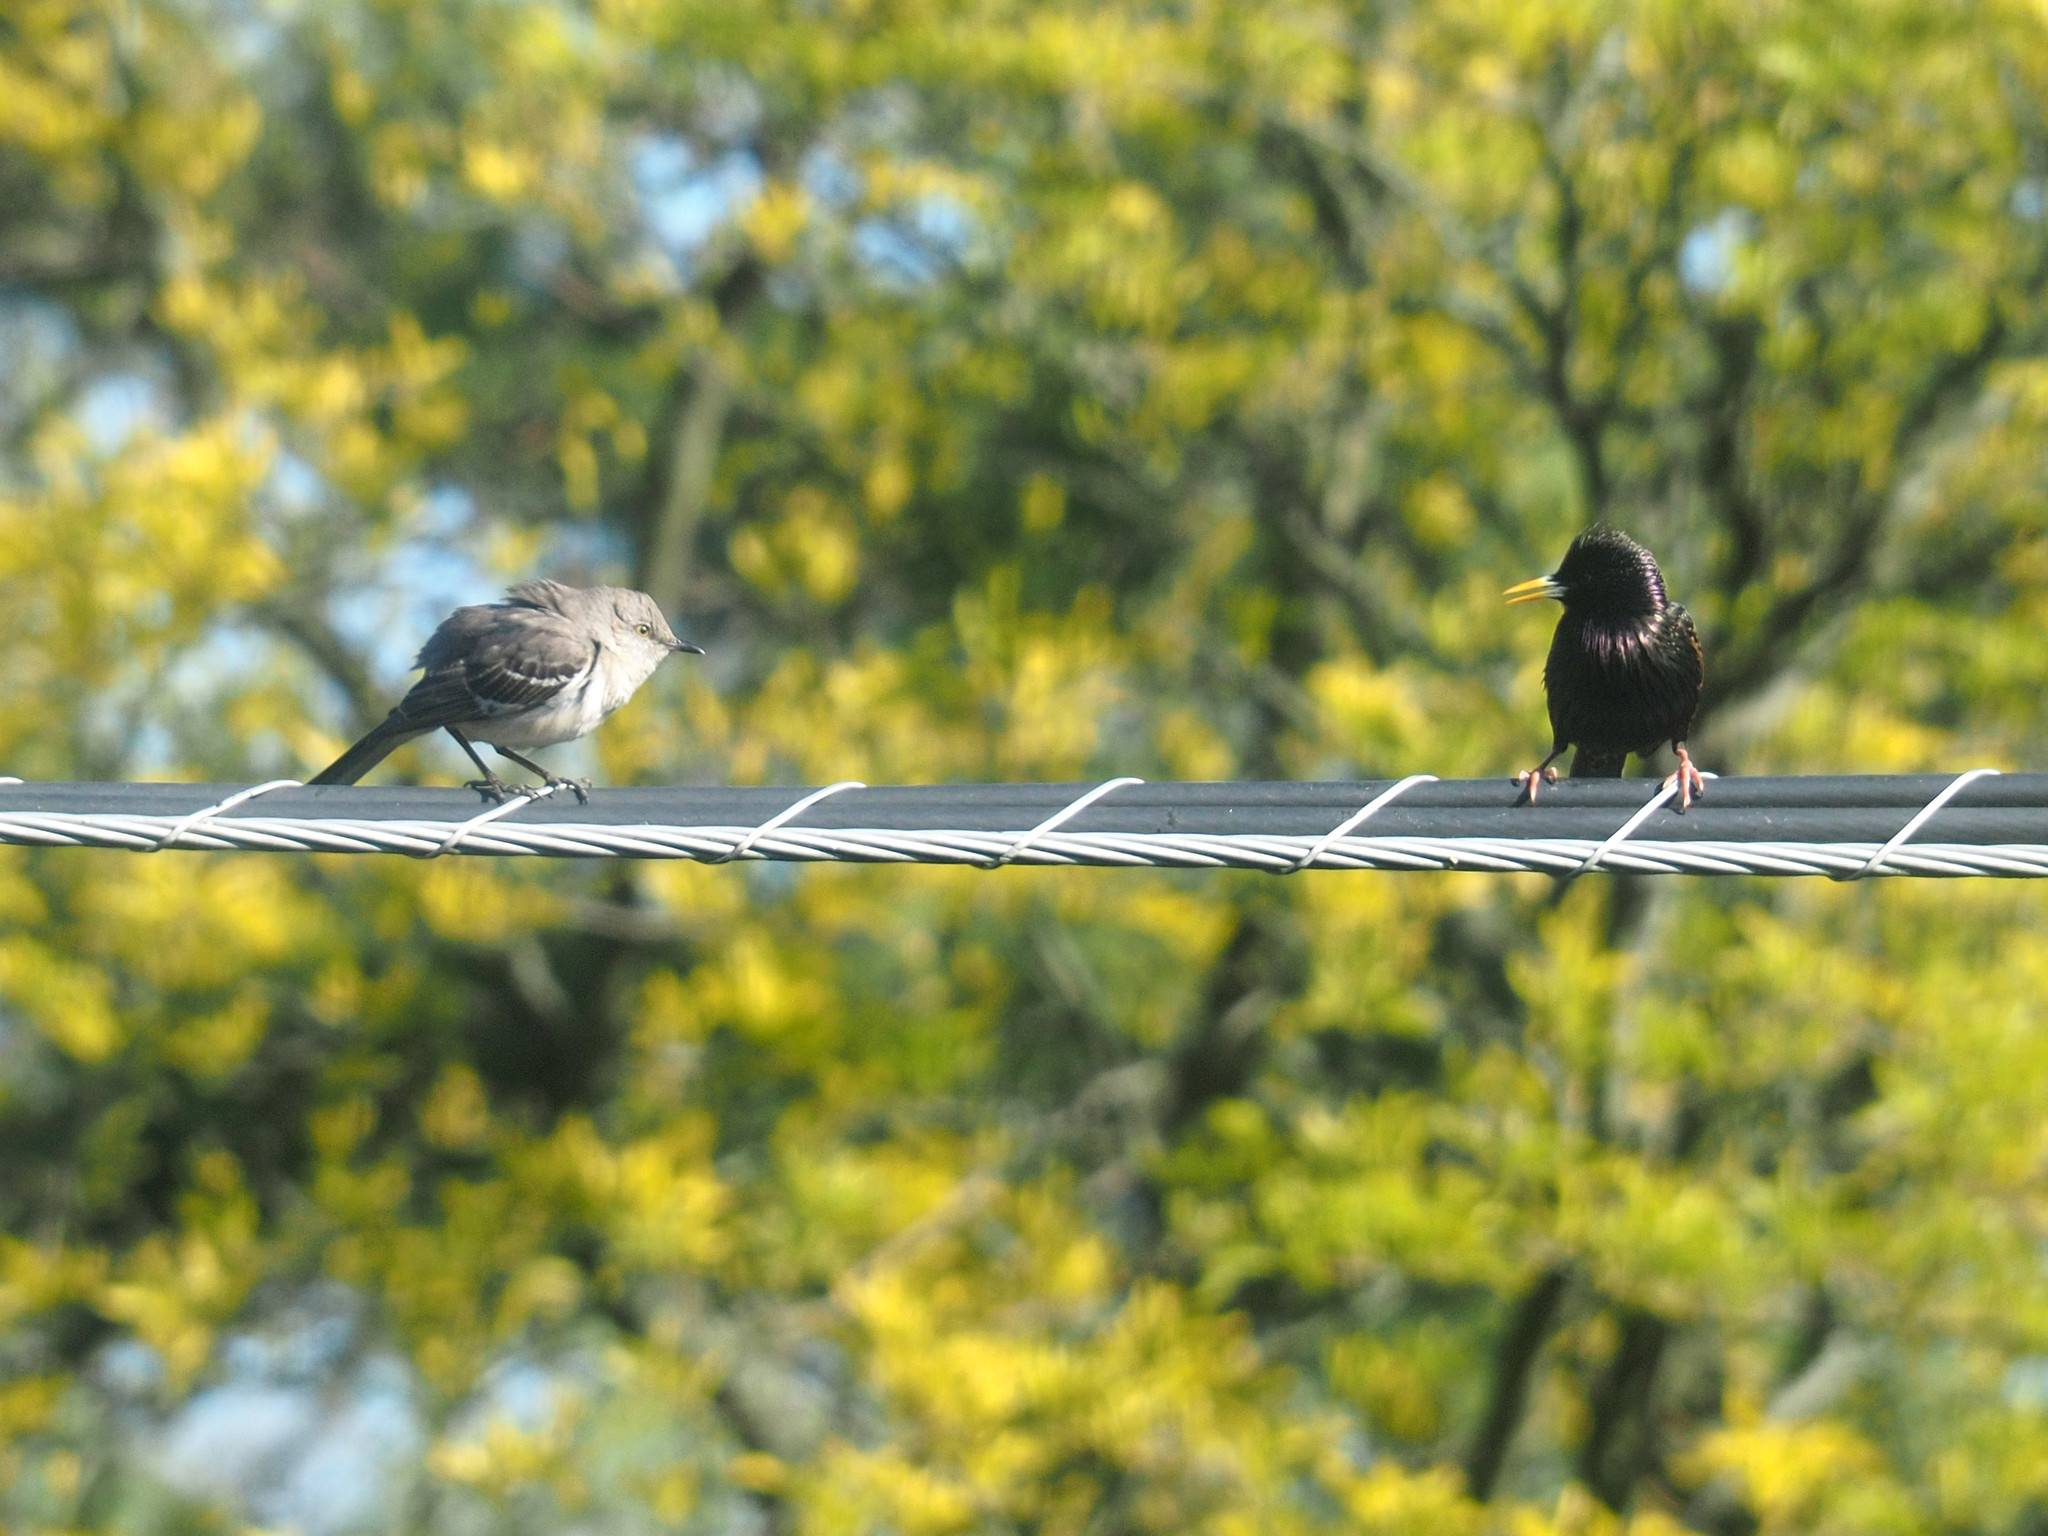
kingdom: Animalia
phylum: Chordata
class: Aves
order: Passeriformes
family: Sturnidae
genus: Sturnus
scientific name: Sturnus vulgaris
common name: Common starling
